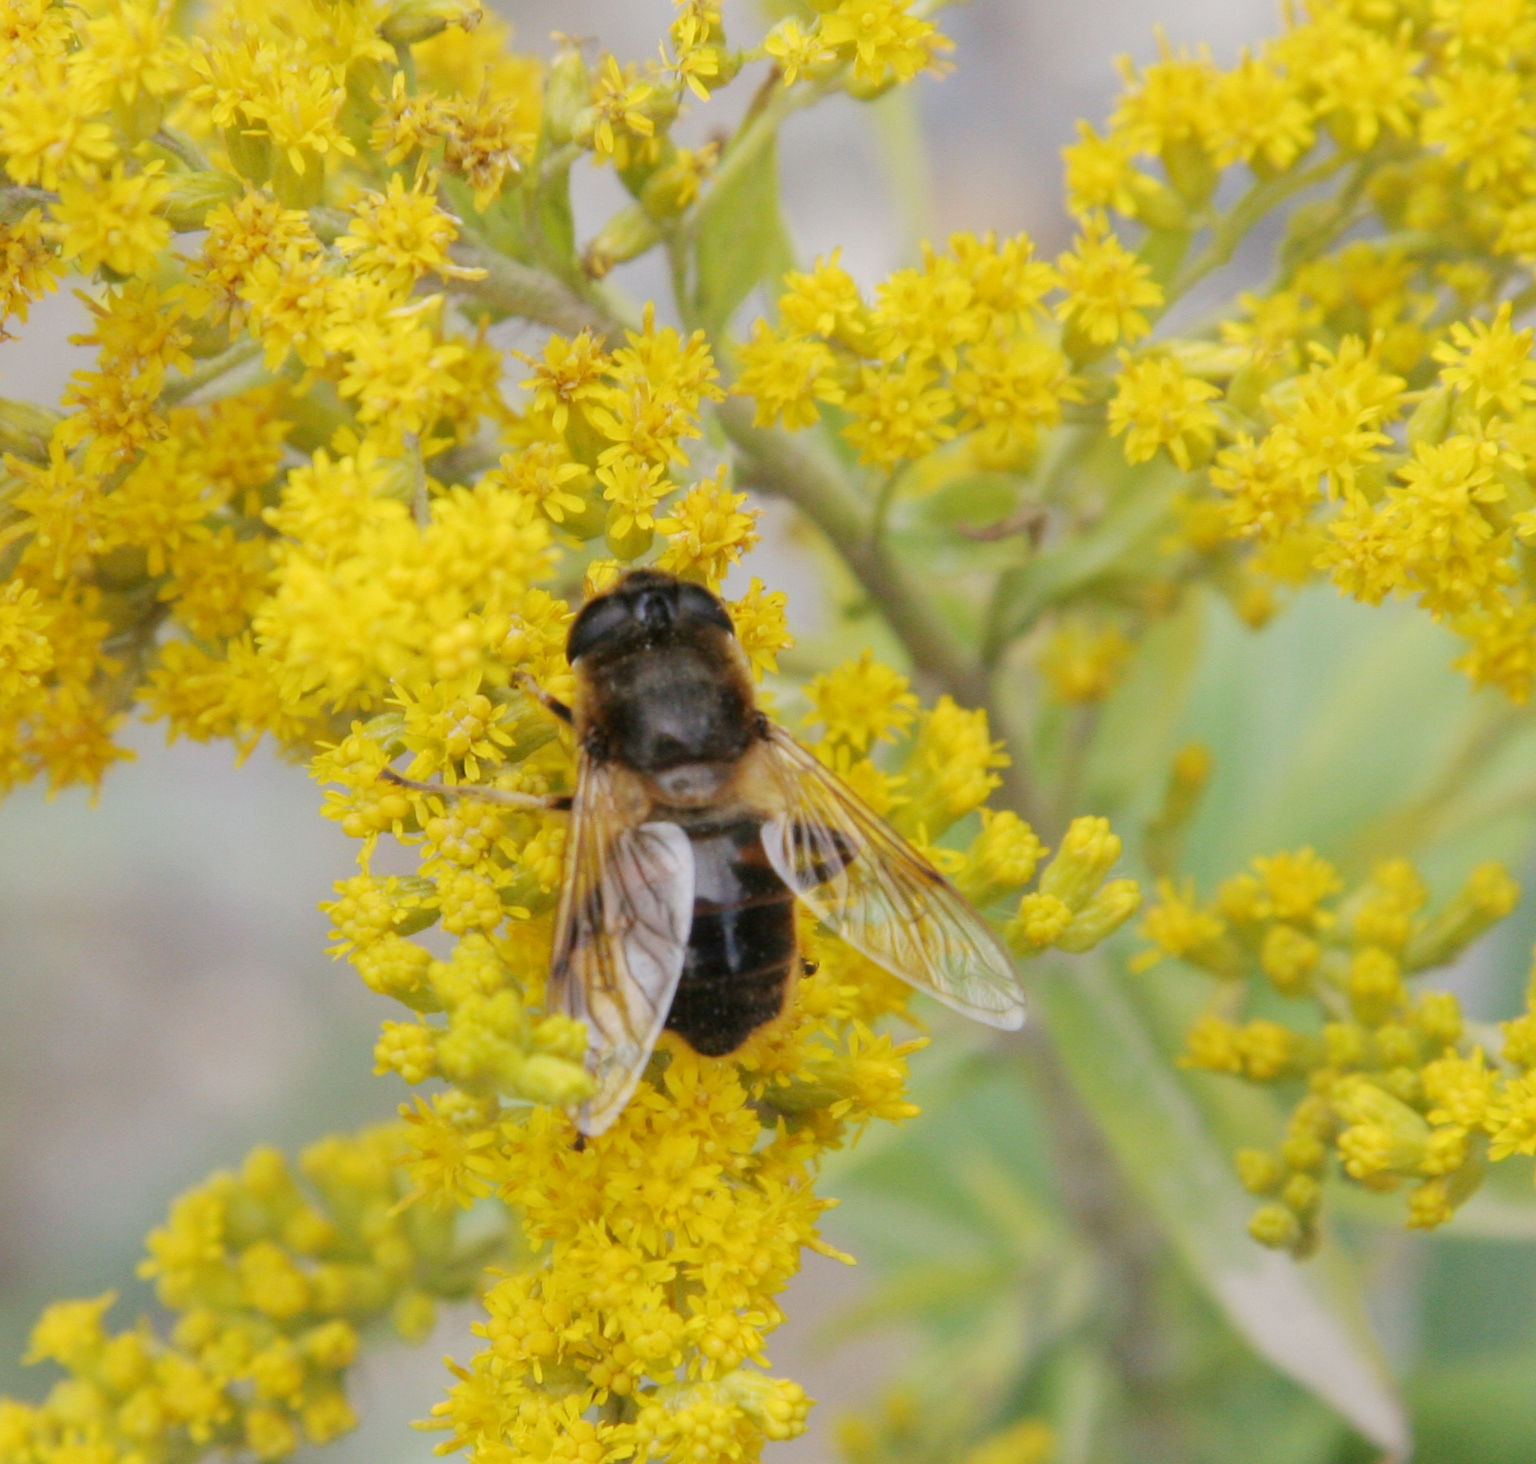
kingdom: Animalia
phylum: Arthropoda
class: Insecta
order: Diptera
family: Syrphidae
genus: Eristalis
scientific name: Eristalis tenax
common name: Drone fly
